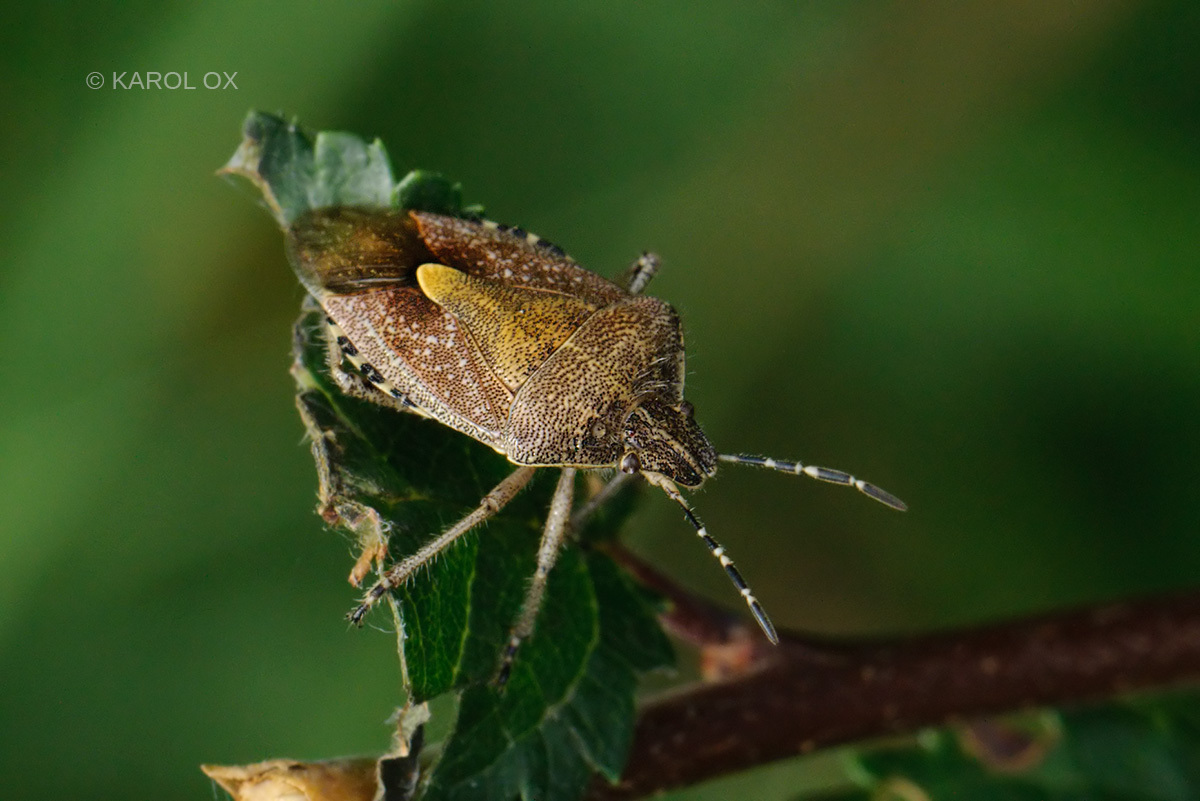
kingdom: Animalia
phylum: Arthropoda
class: Insecta
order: Hemiptera
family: Pentatomidae
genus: Dolycoris
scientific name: Dolycoris baccarum
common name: Sloe bug
